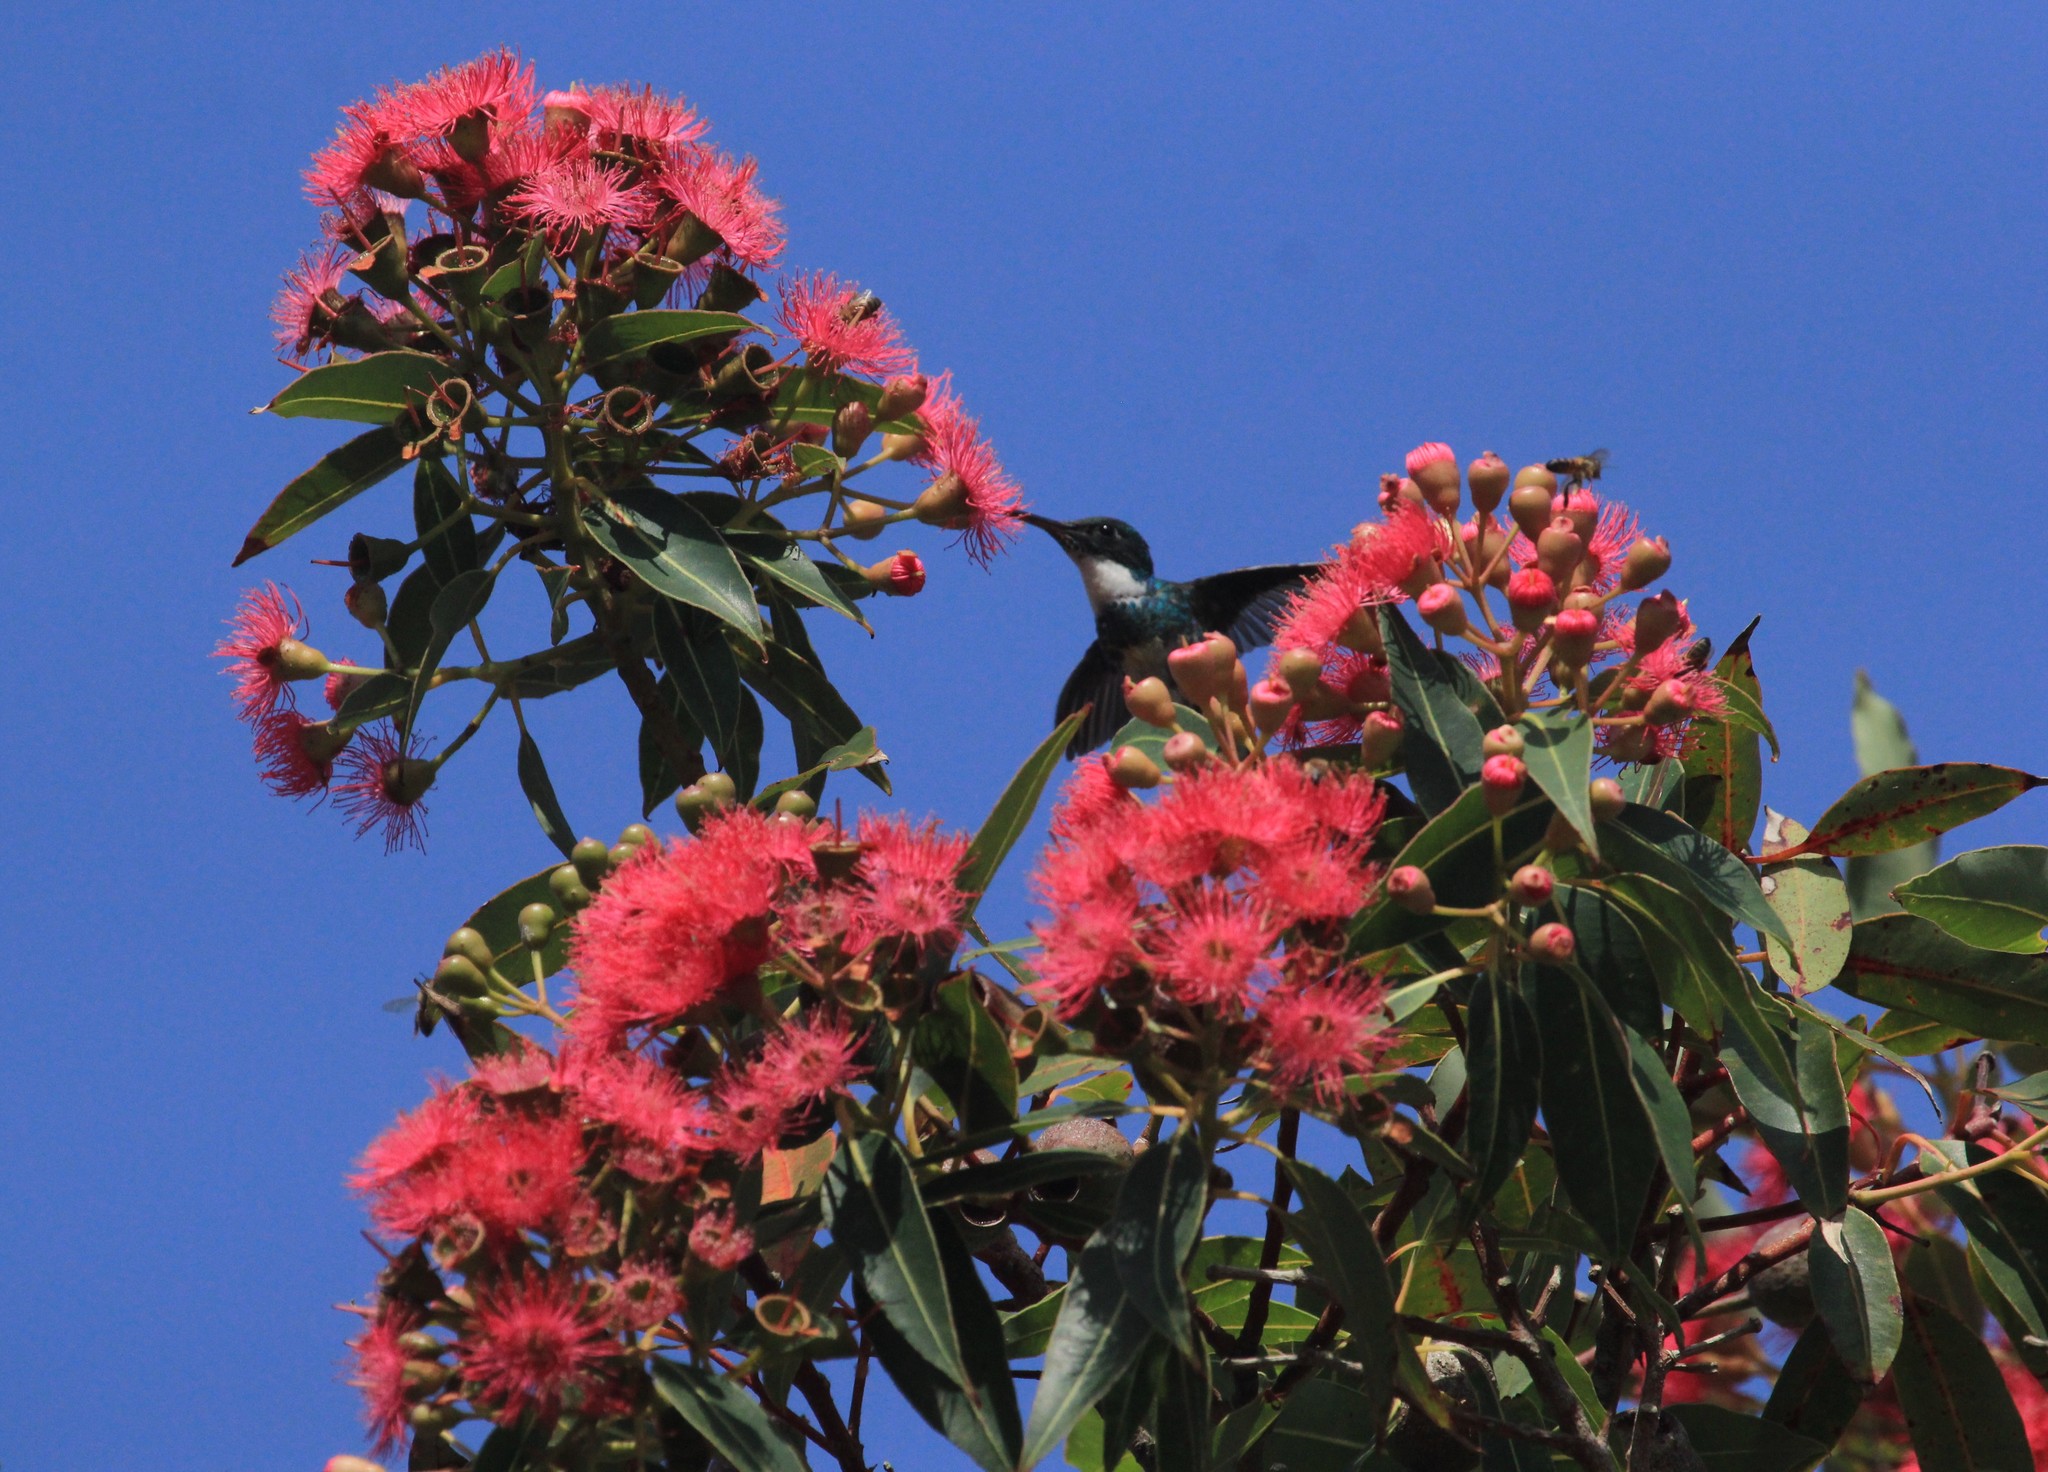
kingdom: Animalia
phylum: Chordata
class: Aves
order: Apodiformes
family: Trochilidae
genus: Leucochloris
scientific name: Leucochloris albicollis
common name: White-throated hummingbird
